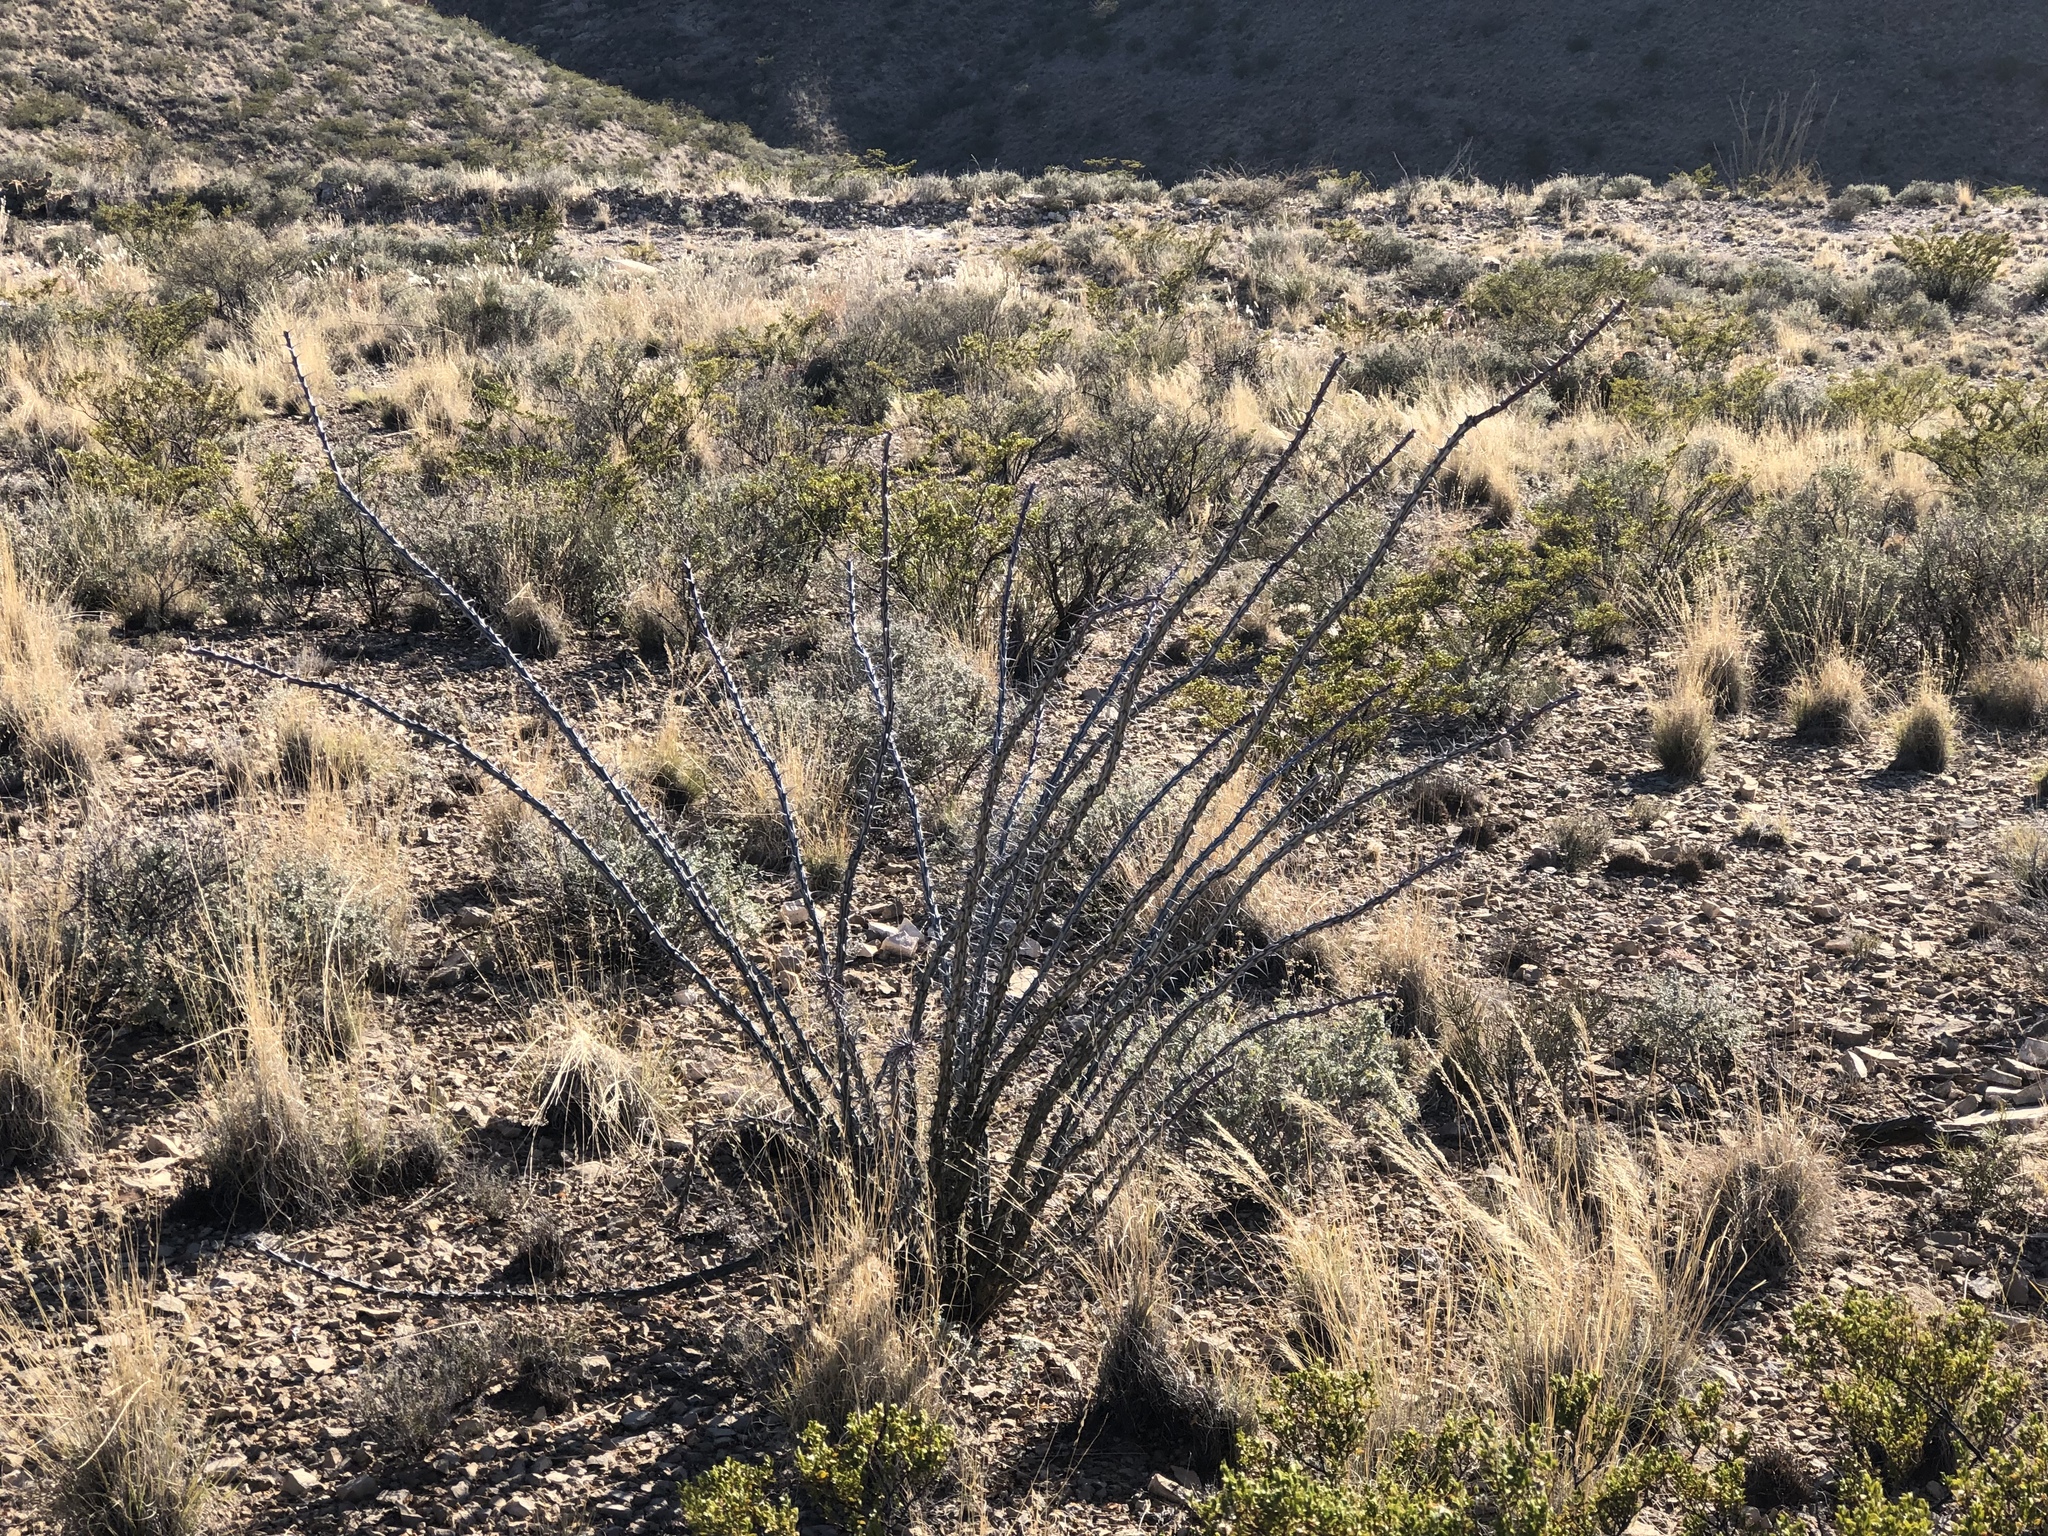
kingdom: Plantae
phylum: Tracheophyta
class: Magnoliopsida
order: Ericales
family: Fouquieriaceae
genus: Fouquieria
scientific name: Fouquieria splendens
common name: Vine-cactus
